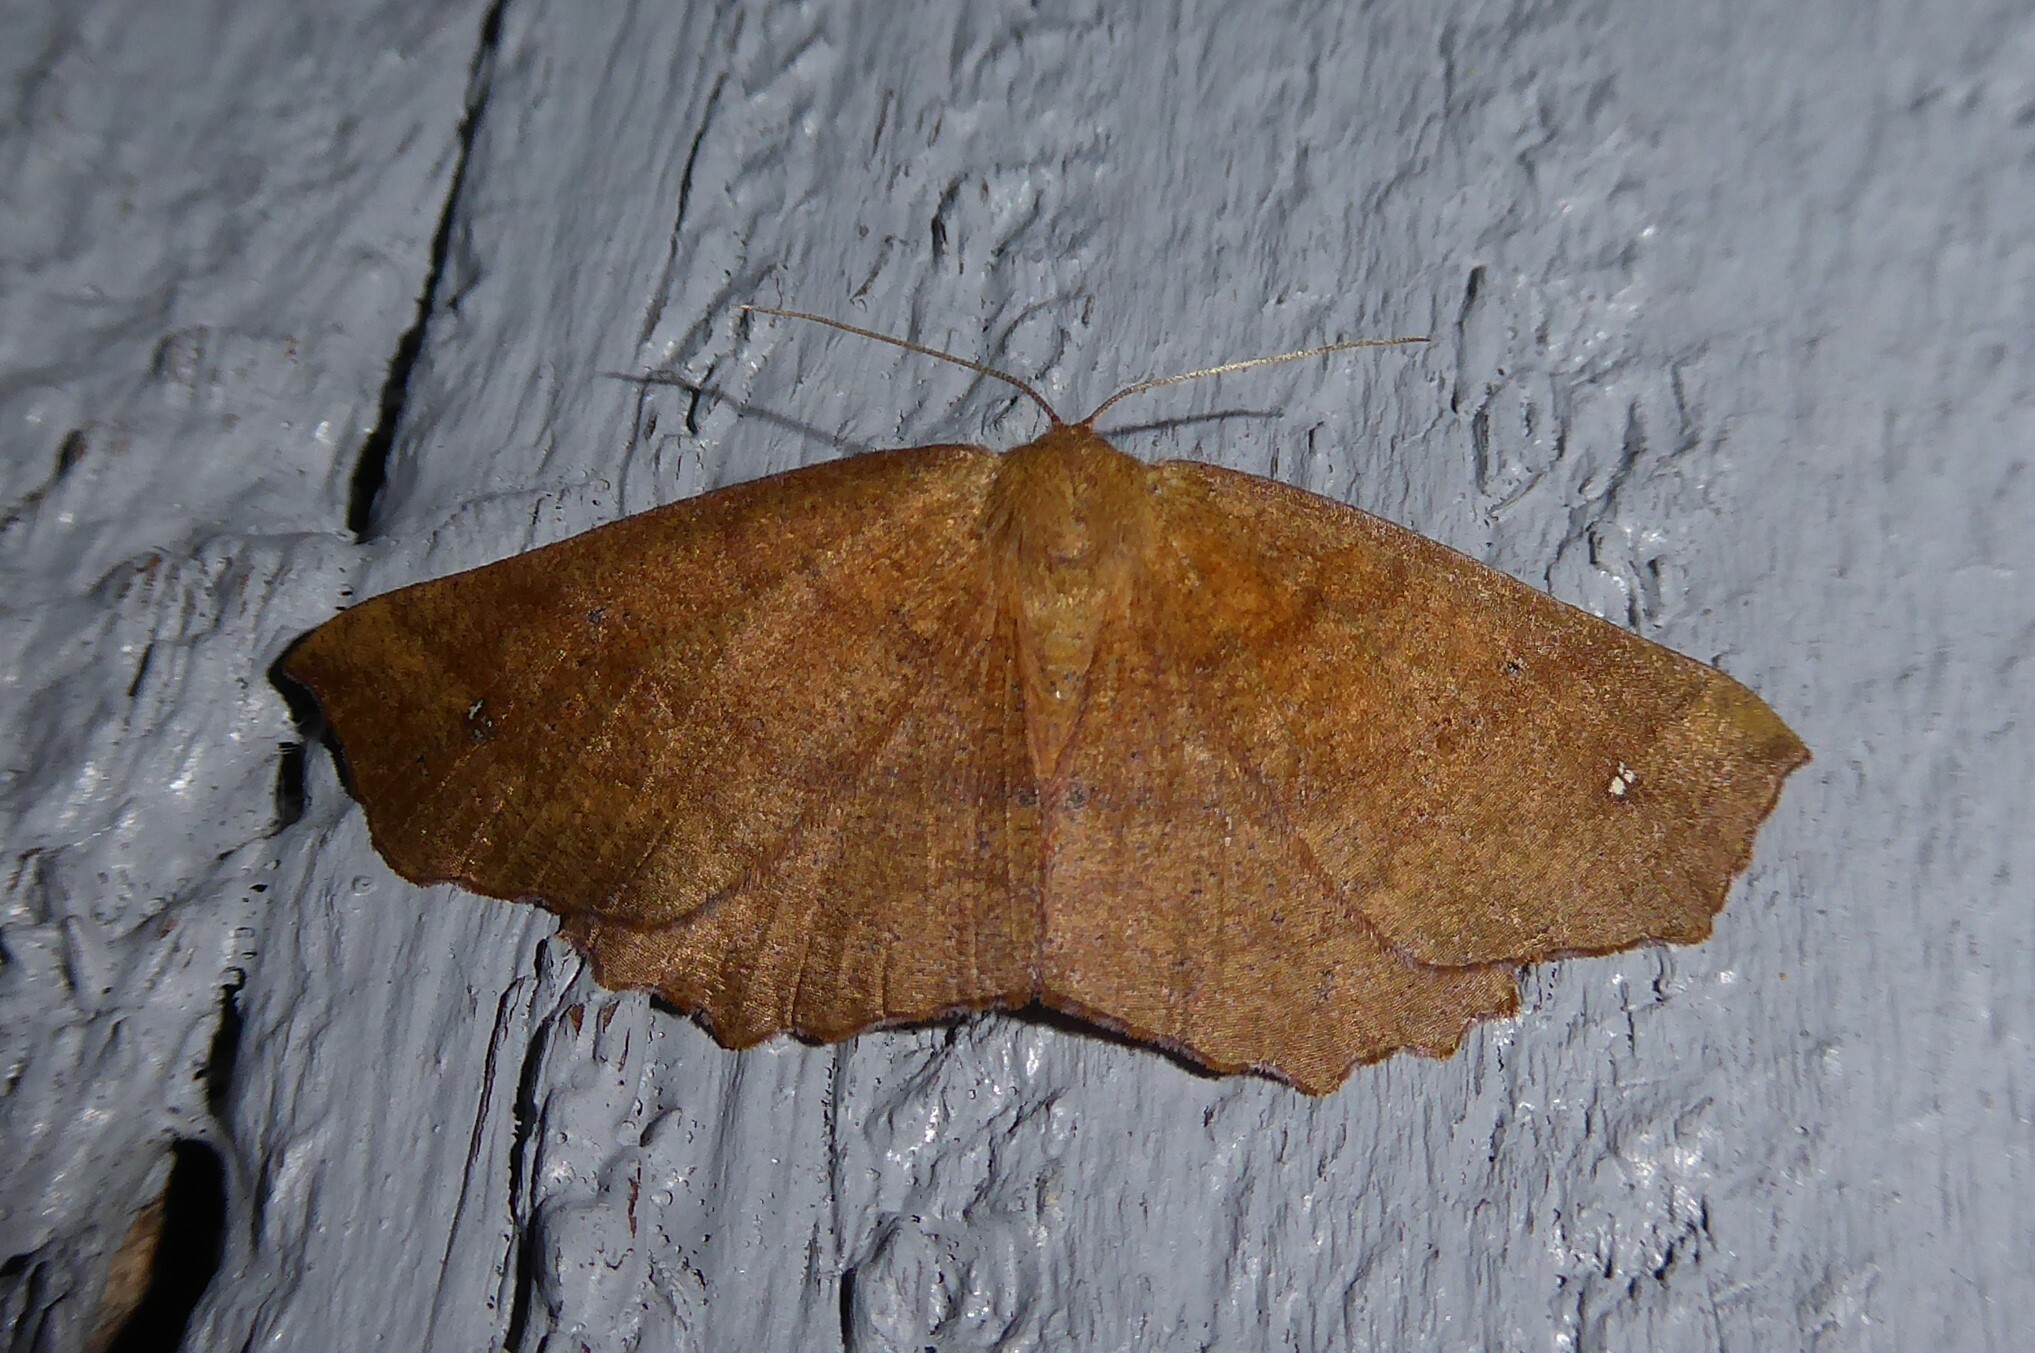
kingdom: Animalia
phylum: Arthropoda
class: Insecta
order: Lepidoptera
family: Geometridae
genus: Xyridacma
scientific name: Xyridacma ustaria
